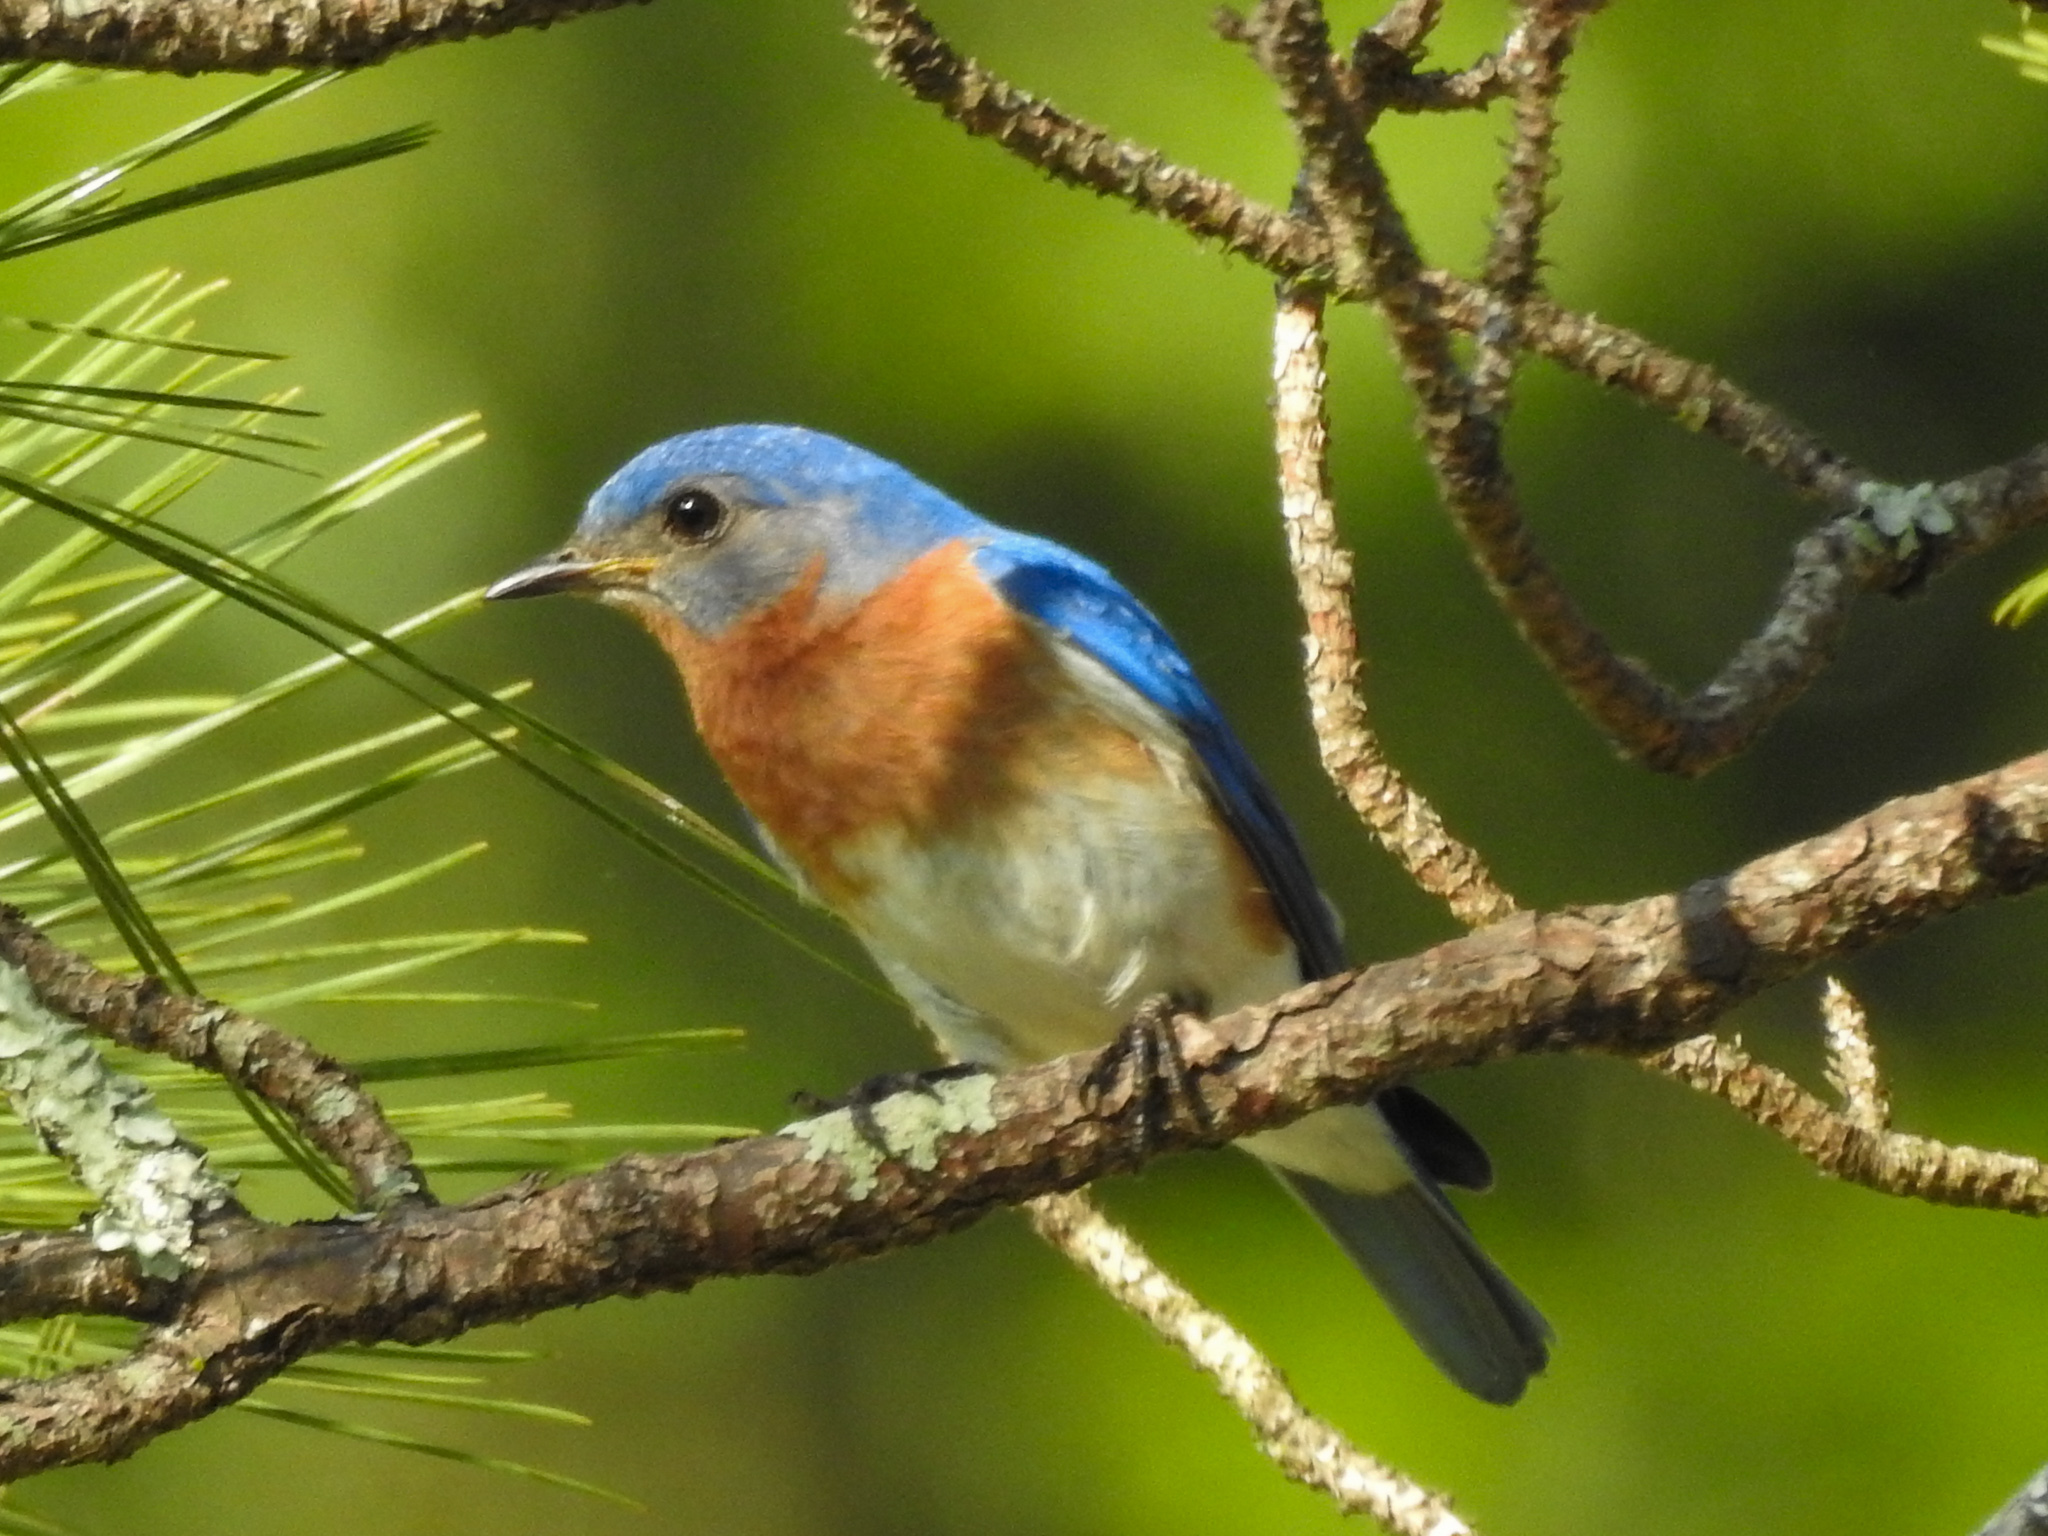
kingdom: Animalia
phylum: Chordata
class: Aves
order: Passeriformes
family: Turdidae
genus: Sialia
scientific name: Sialia sialis
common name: Eastern bluebird
